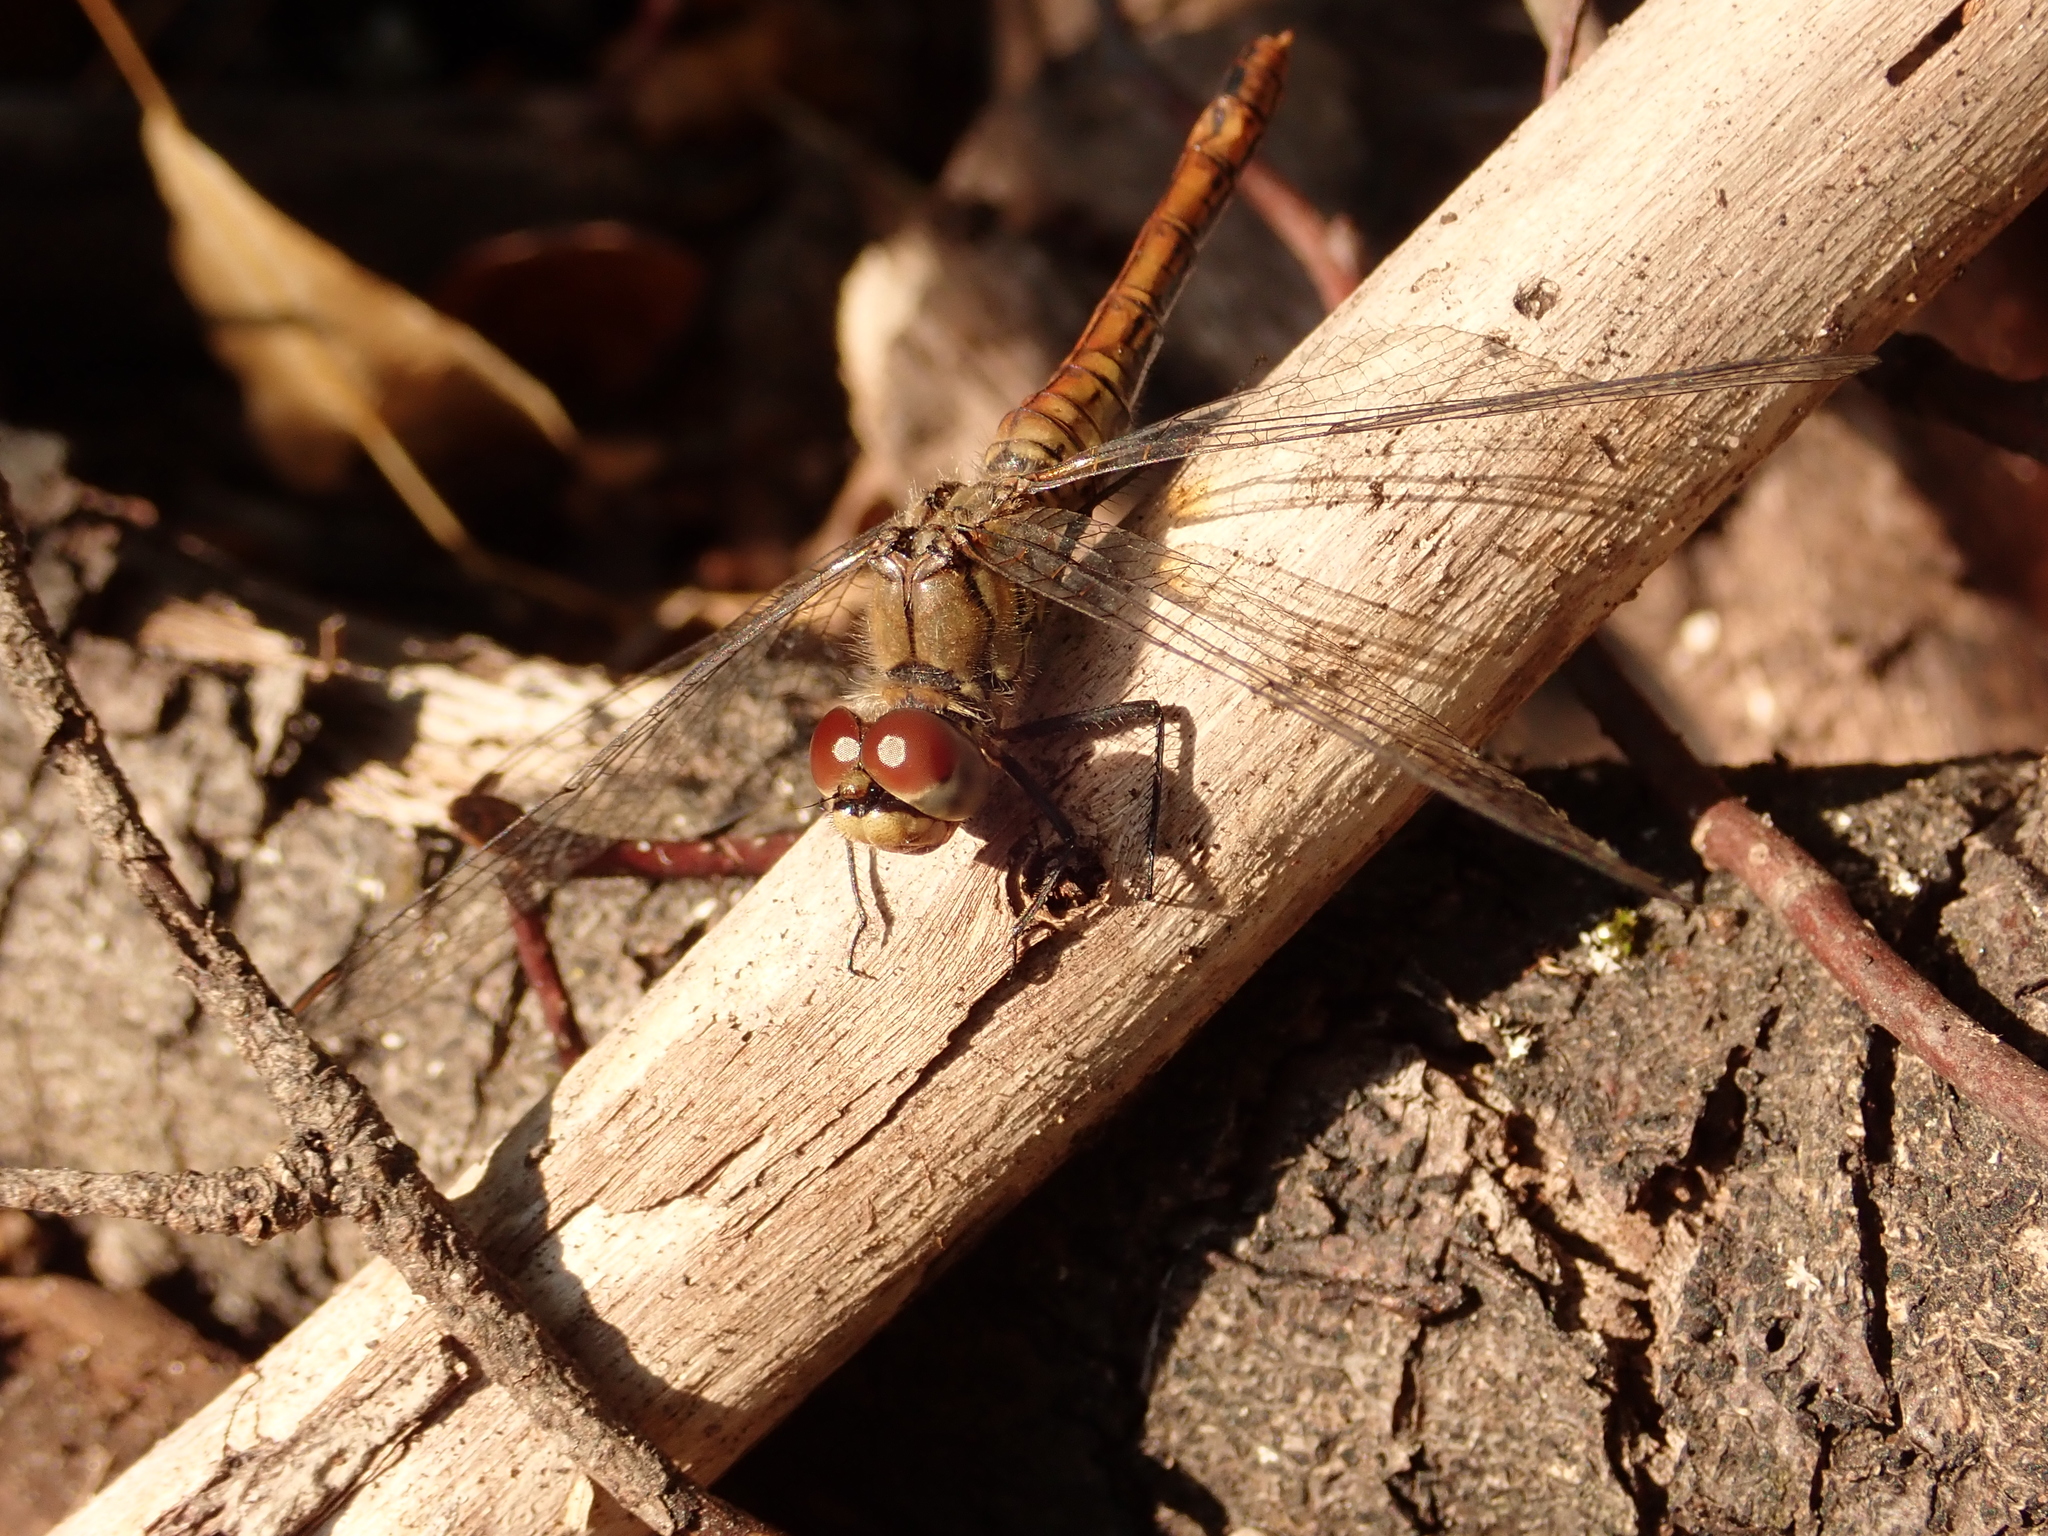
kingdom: Animalia
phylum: Arthropoda
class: Insecta
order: Odonata
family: Libellulidae
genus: Sympetrum
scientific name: Sympetrum sanguineum
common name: Ruddy darter
